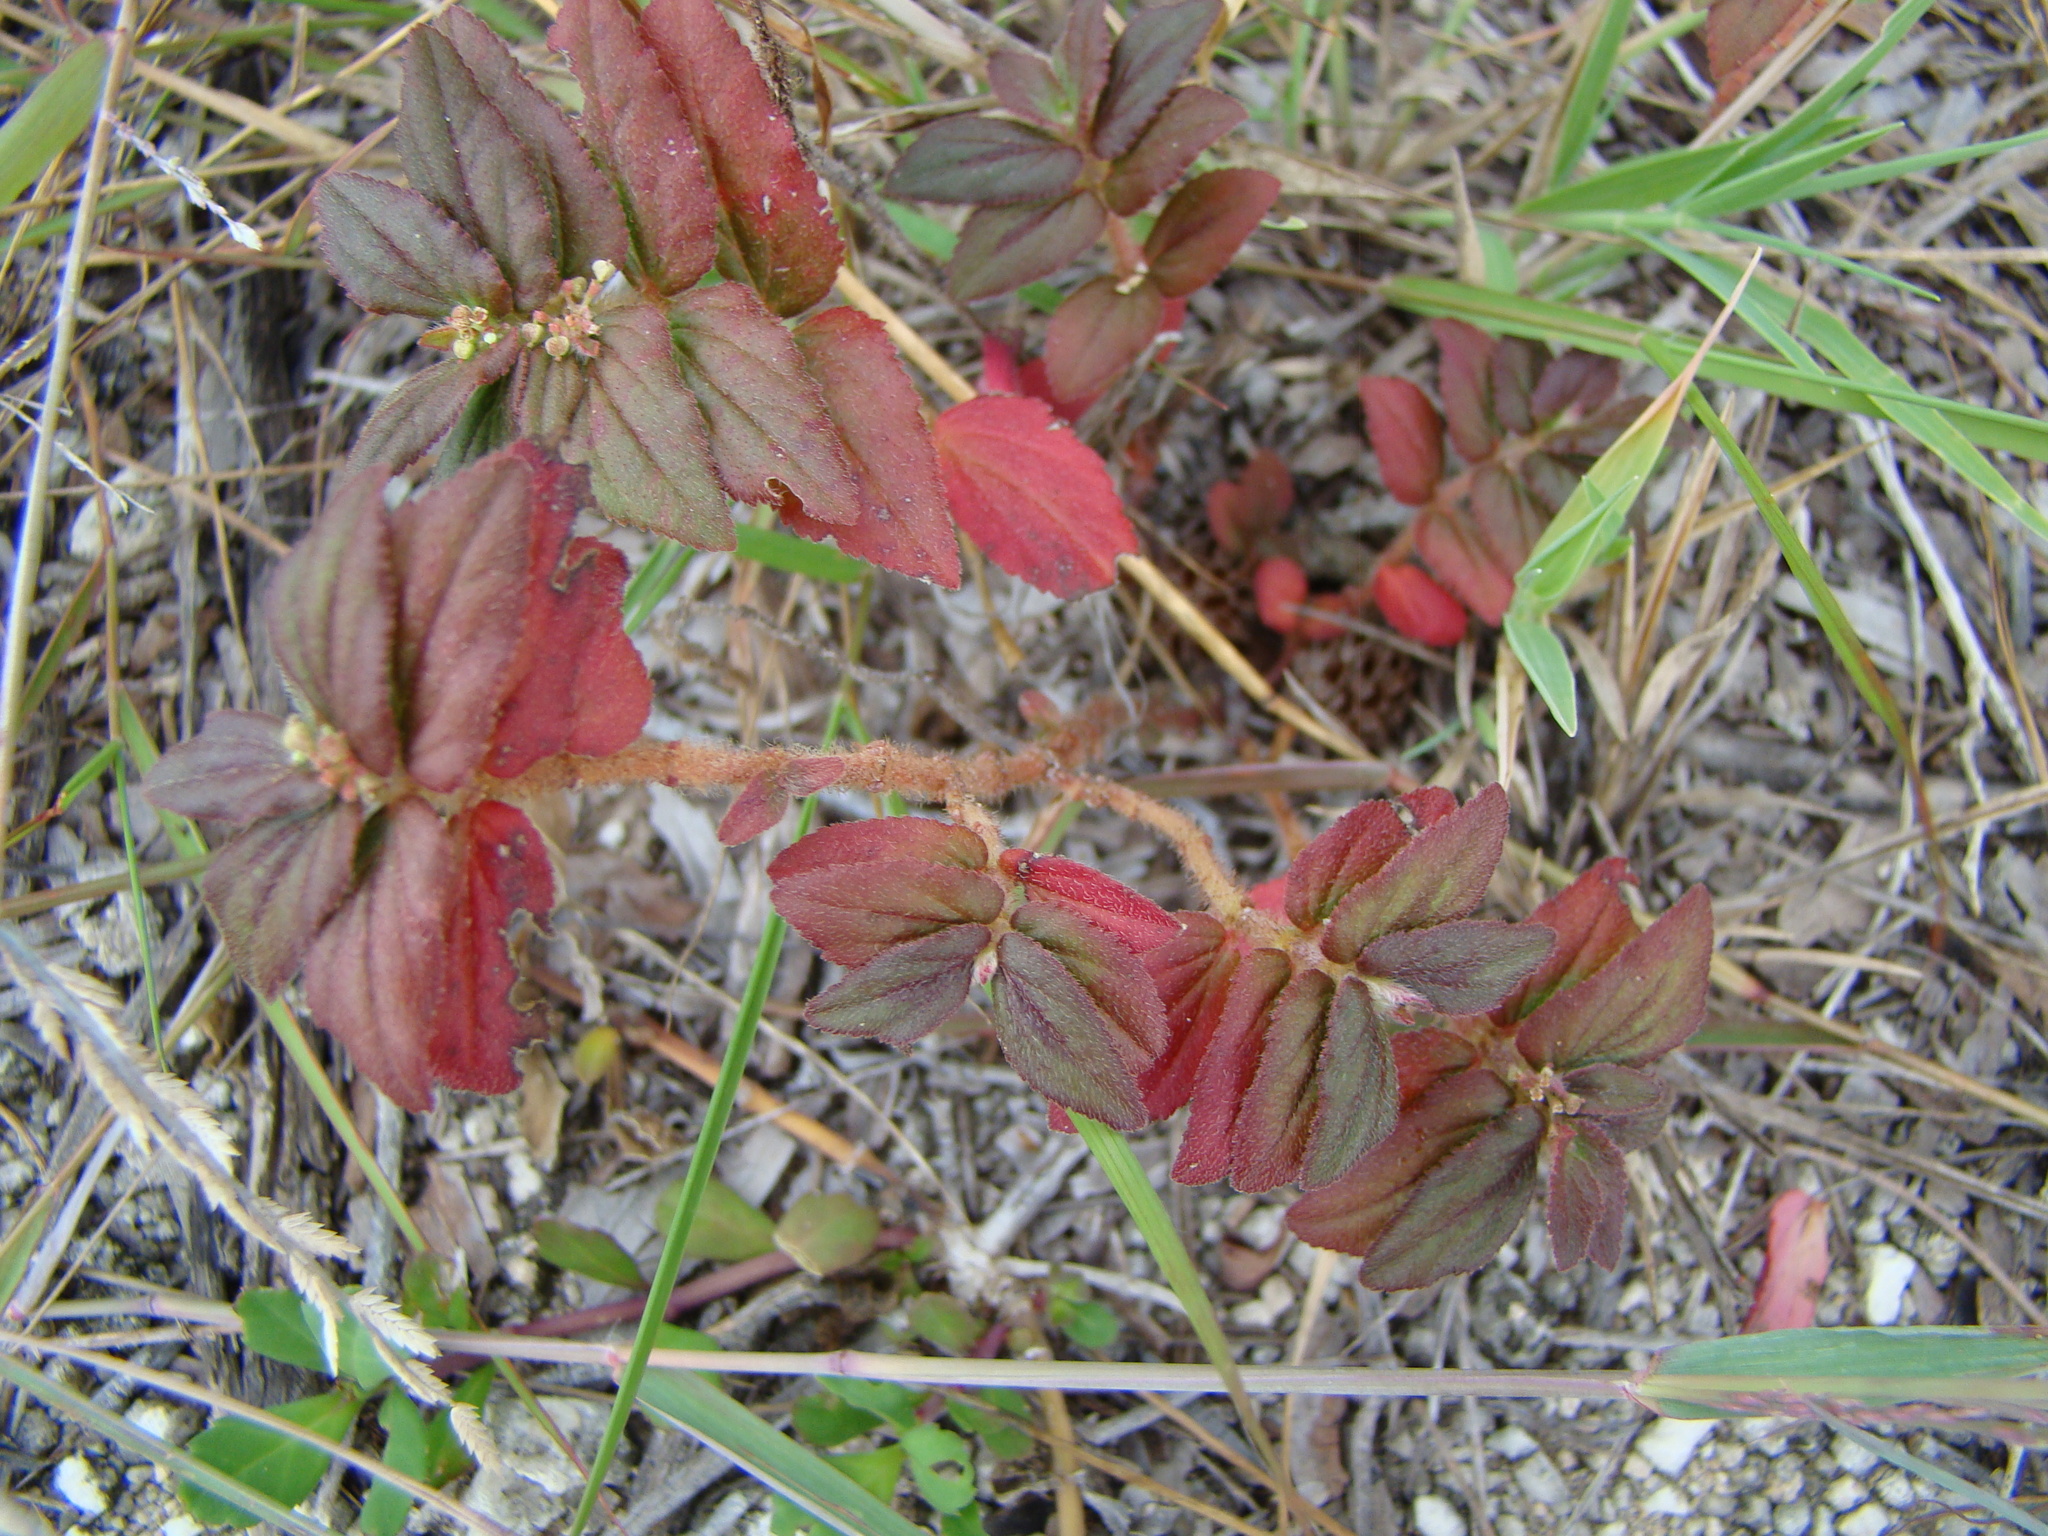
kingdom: Plantae
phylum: Tracheophyta
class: Magnoliopsida
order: Malpighiales
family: Euphorbiaceae
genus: Euphorbia
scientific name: Euphorbia hirta
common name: Pillpod sandmat
